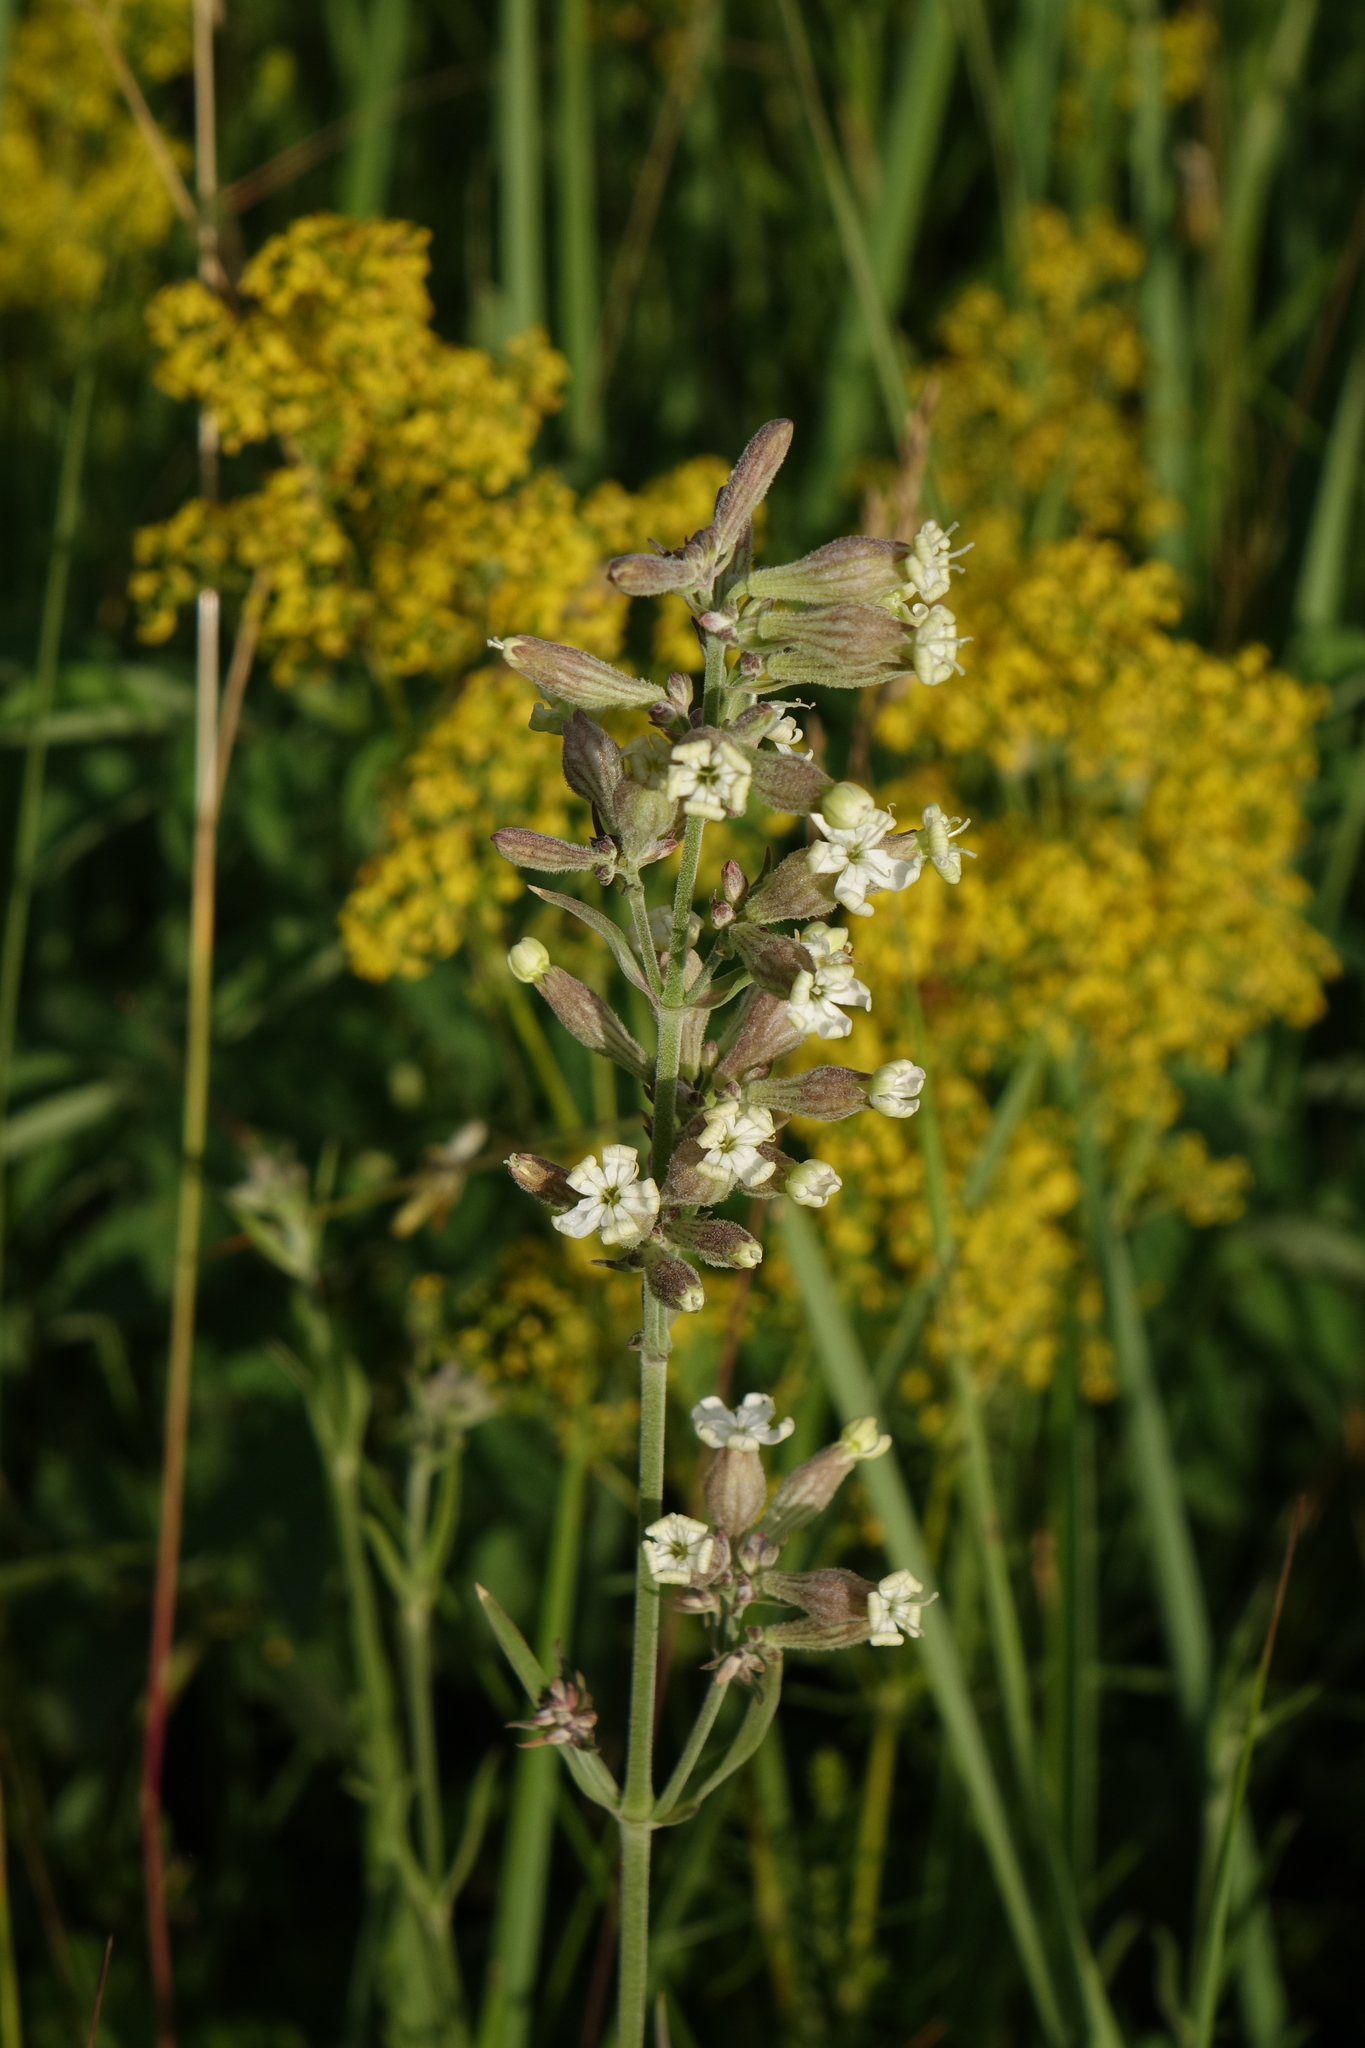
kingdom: Plantae
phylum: Tracheophyta
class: Magnoliopsida
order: Caryophyllales
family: Caryophyllaceae
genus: Silene
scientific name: Silene amoena
